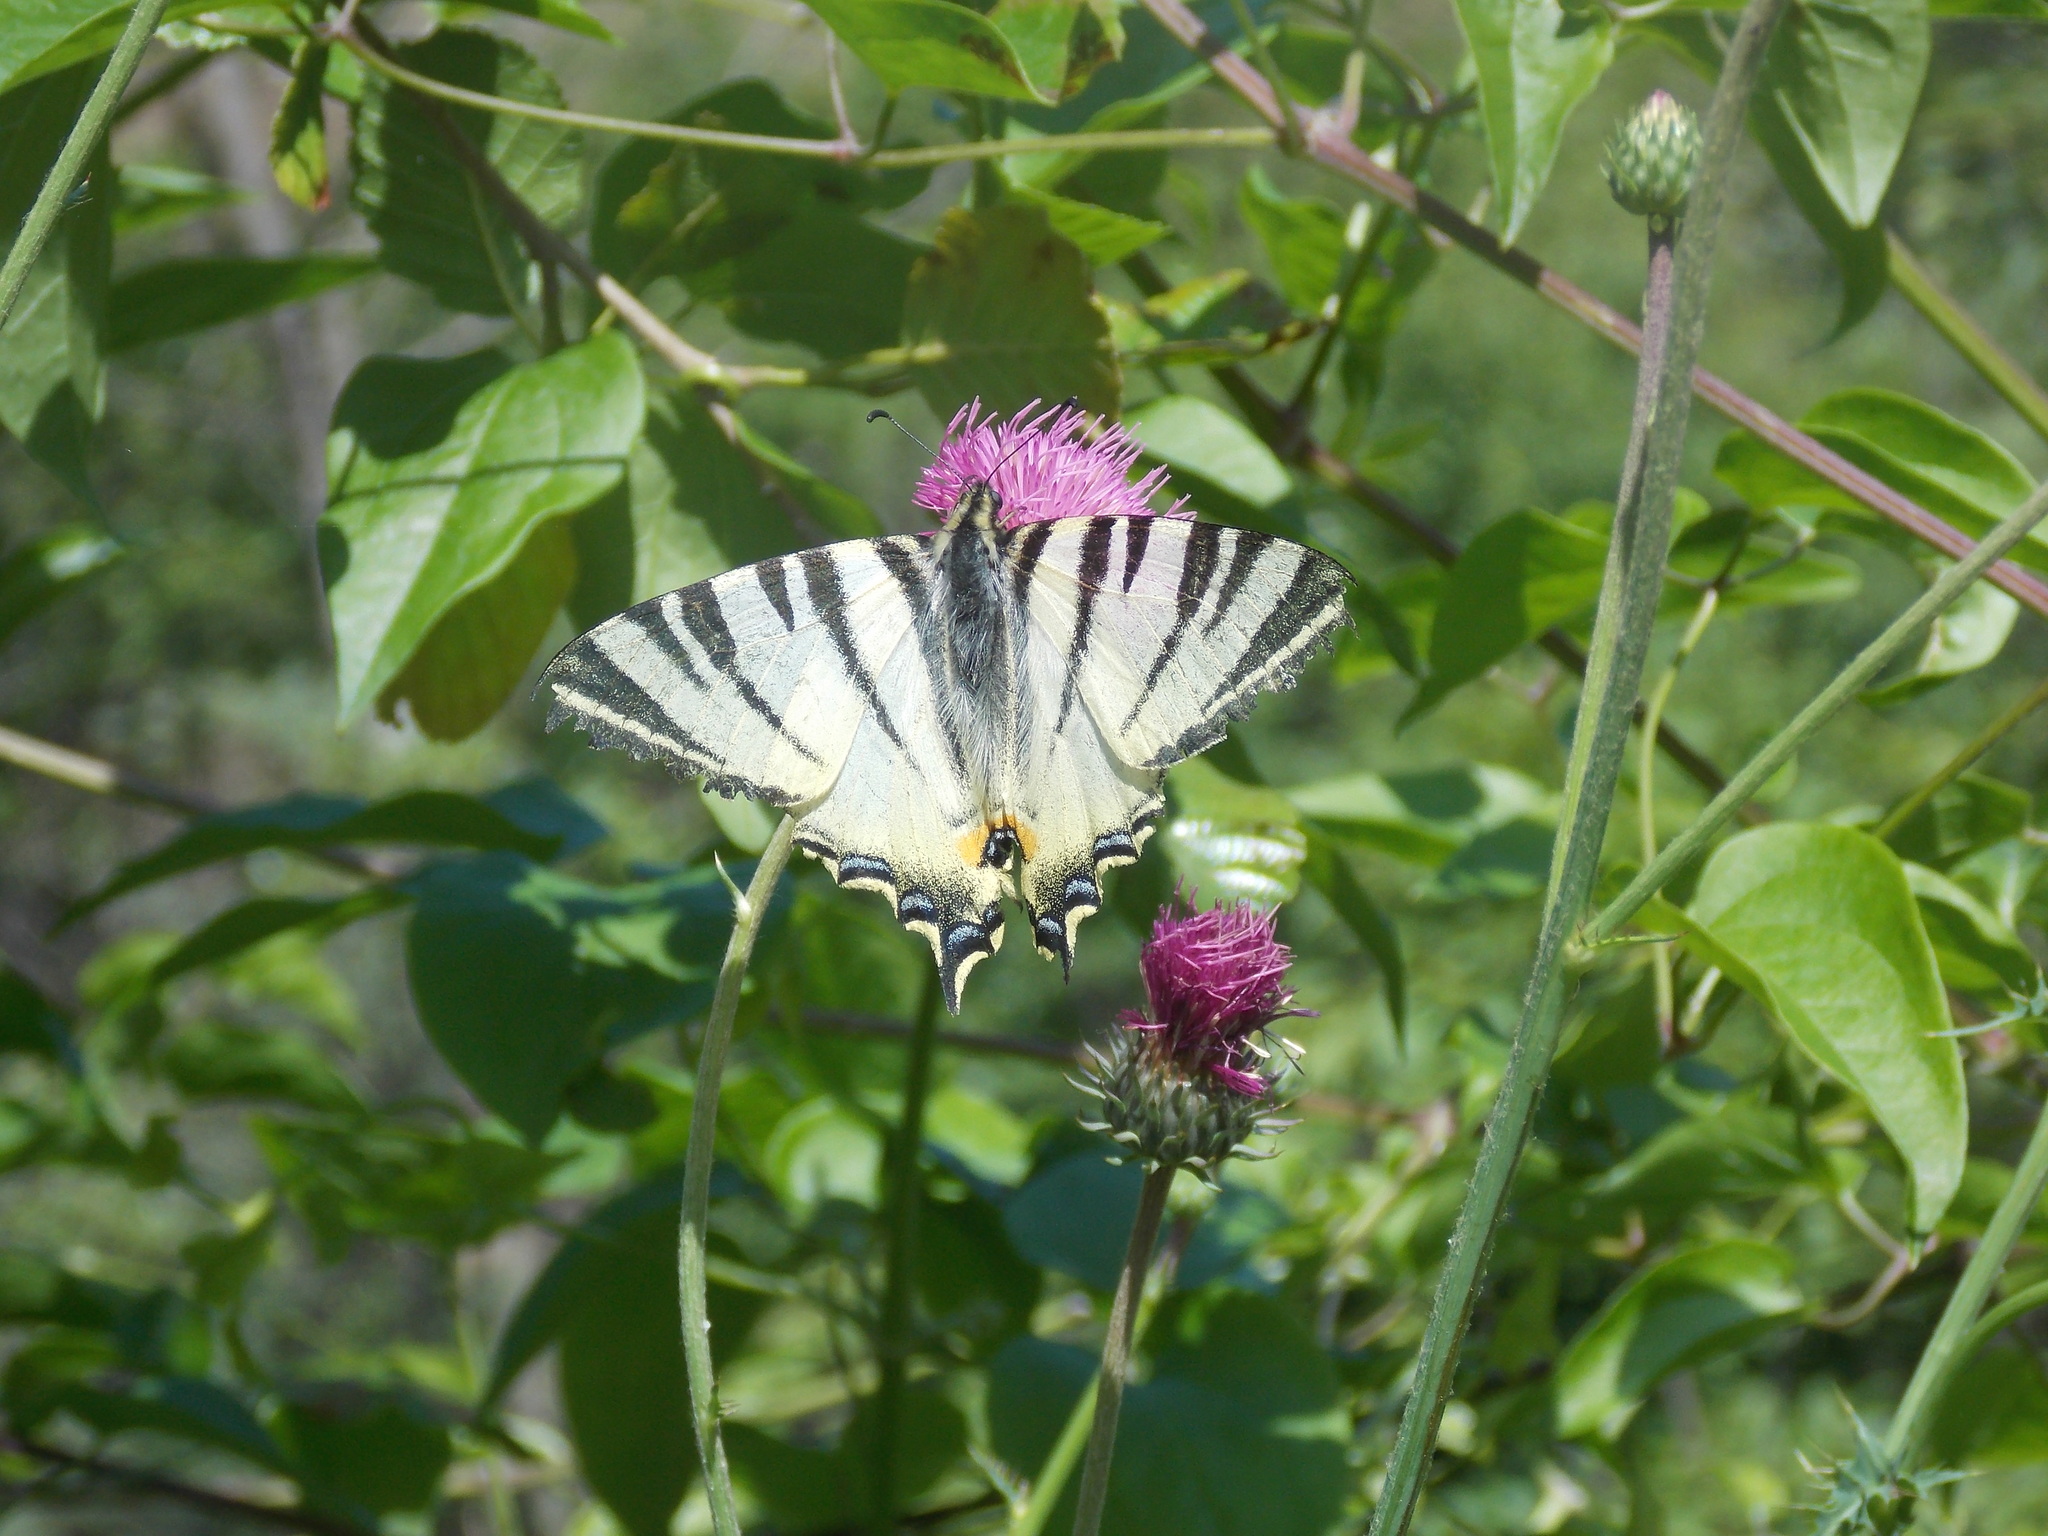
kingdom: Animalia
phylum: Arthropoda
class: Insecta
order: Lepidoptera
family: Papilionidae
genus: Iphiclides
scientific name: Iphiclides podalirius
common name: Scarce swallowtail
